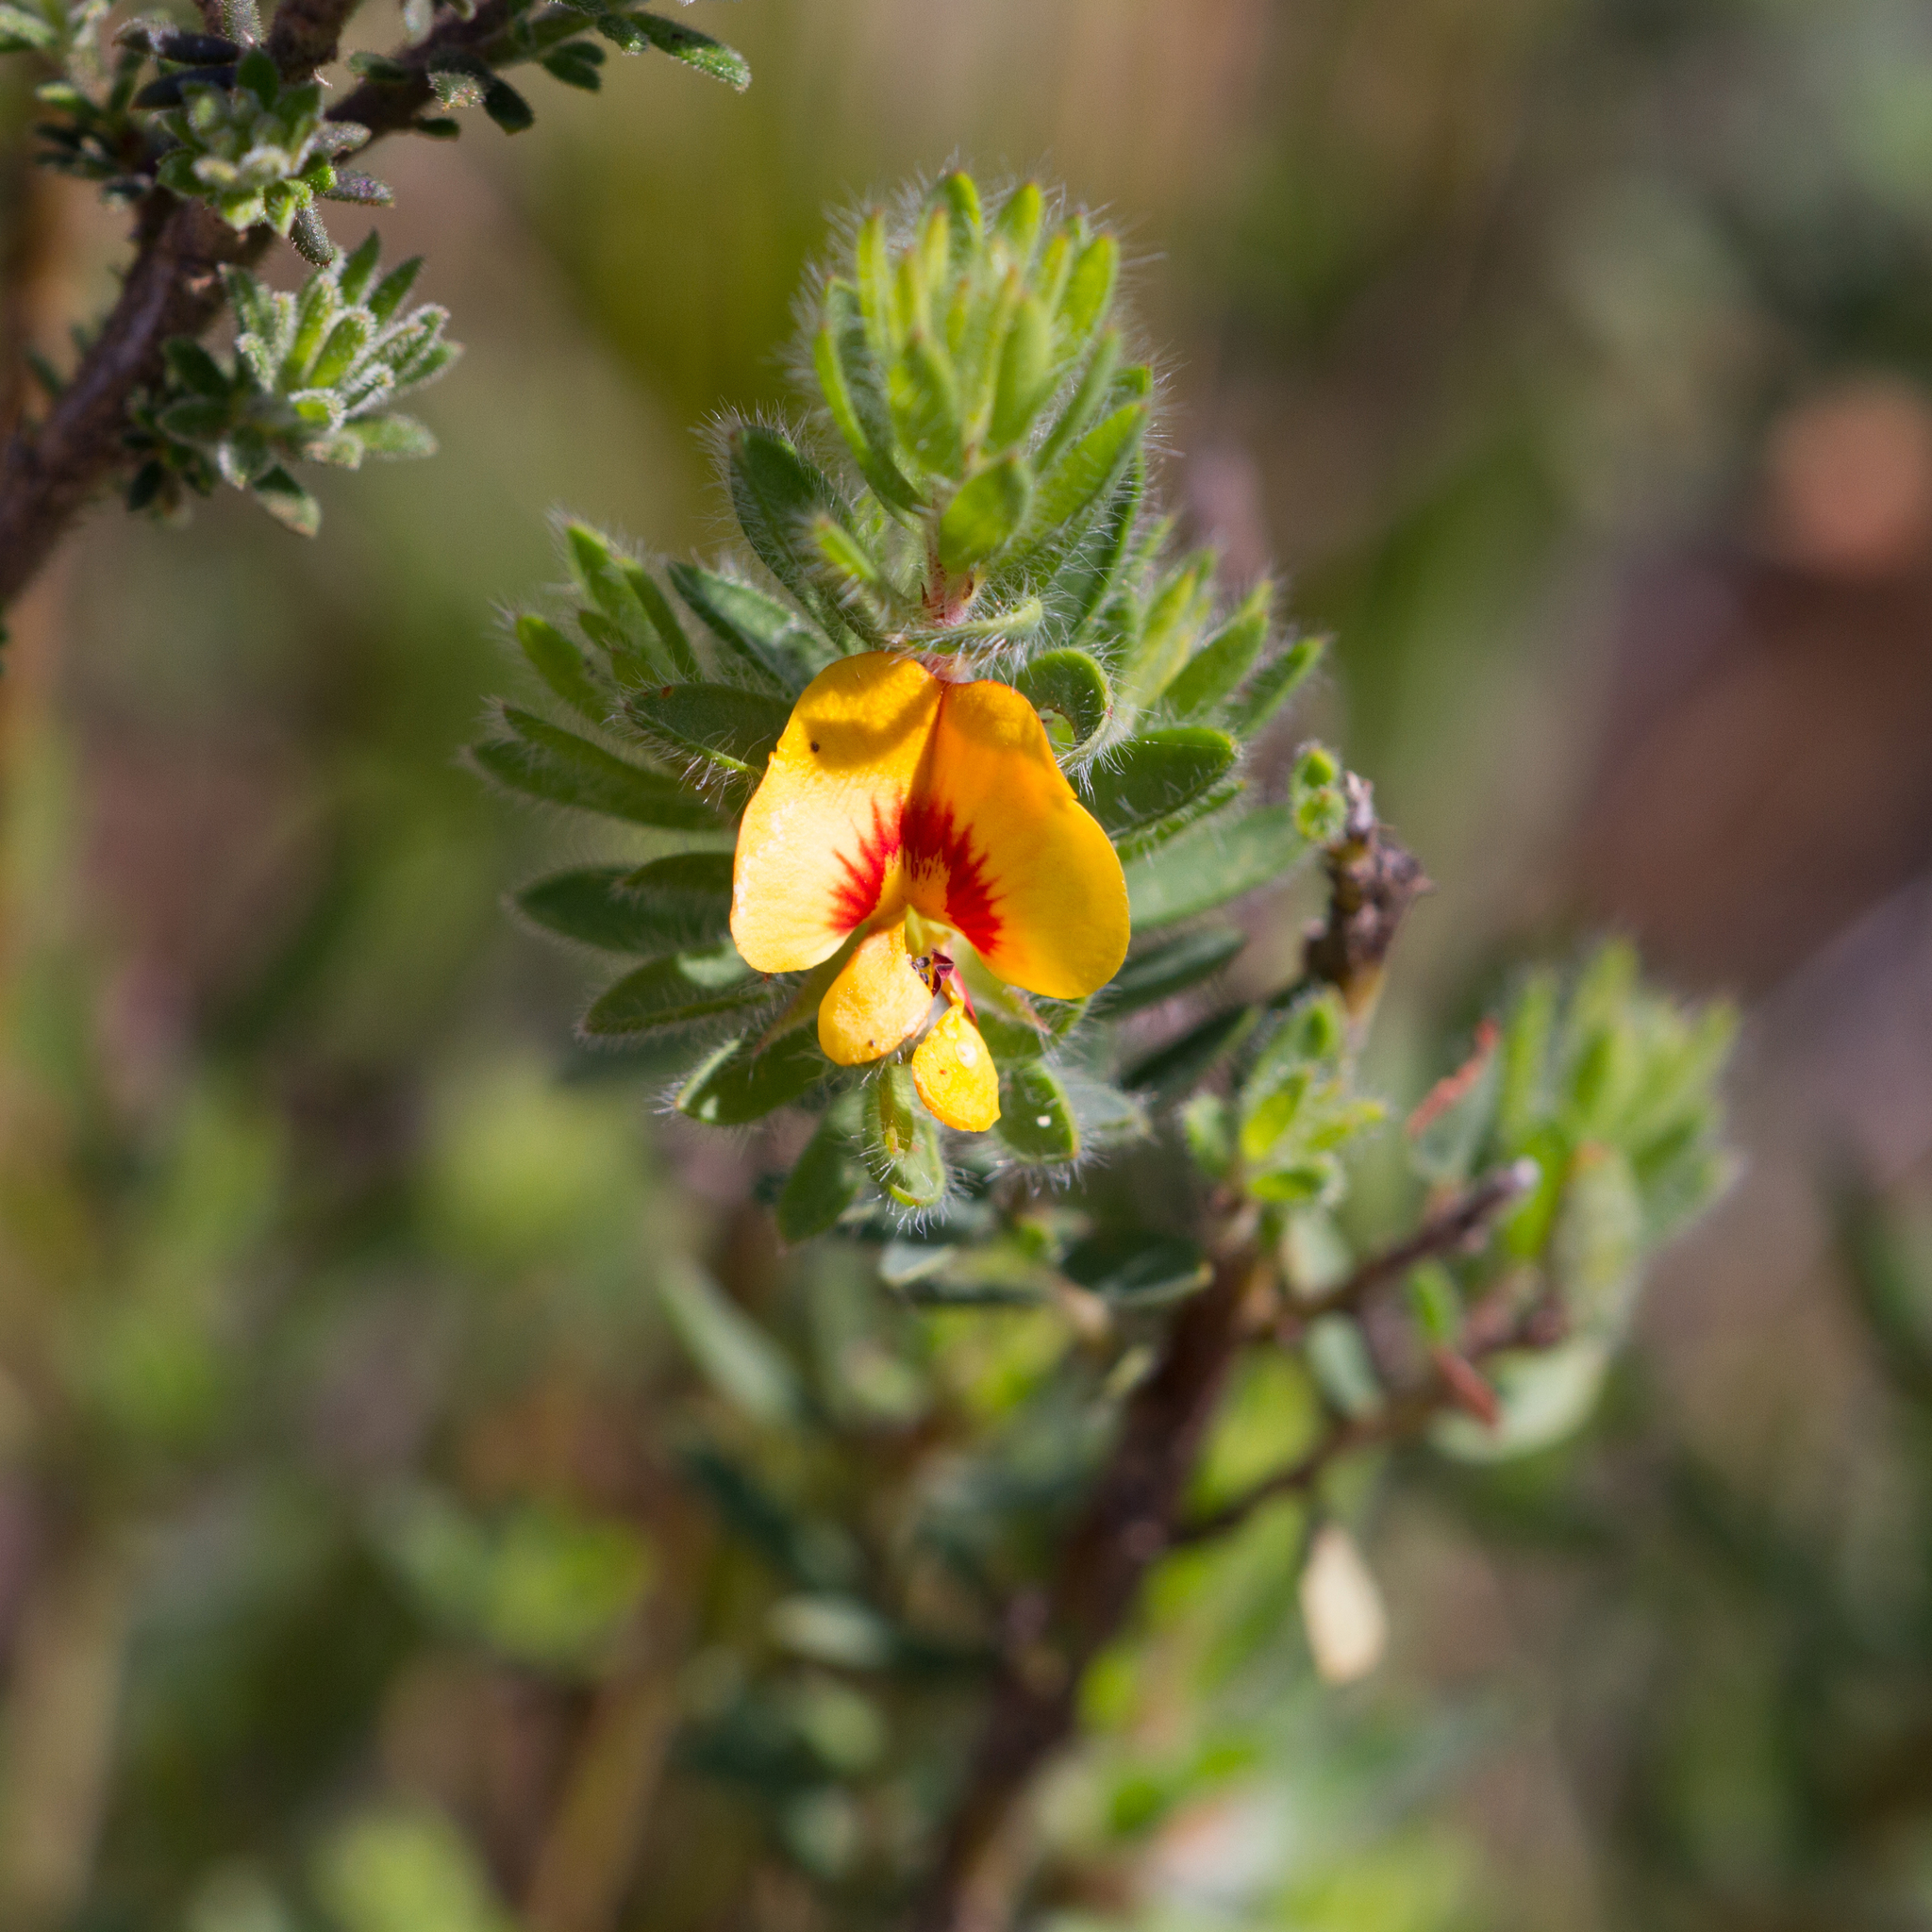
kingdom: Plantae
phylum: Tracheophyta
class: Magnoliopsida
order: Fabales
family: Fabaceae
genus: Pultenaea
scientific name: Pultenaea humilis
